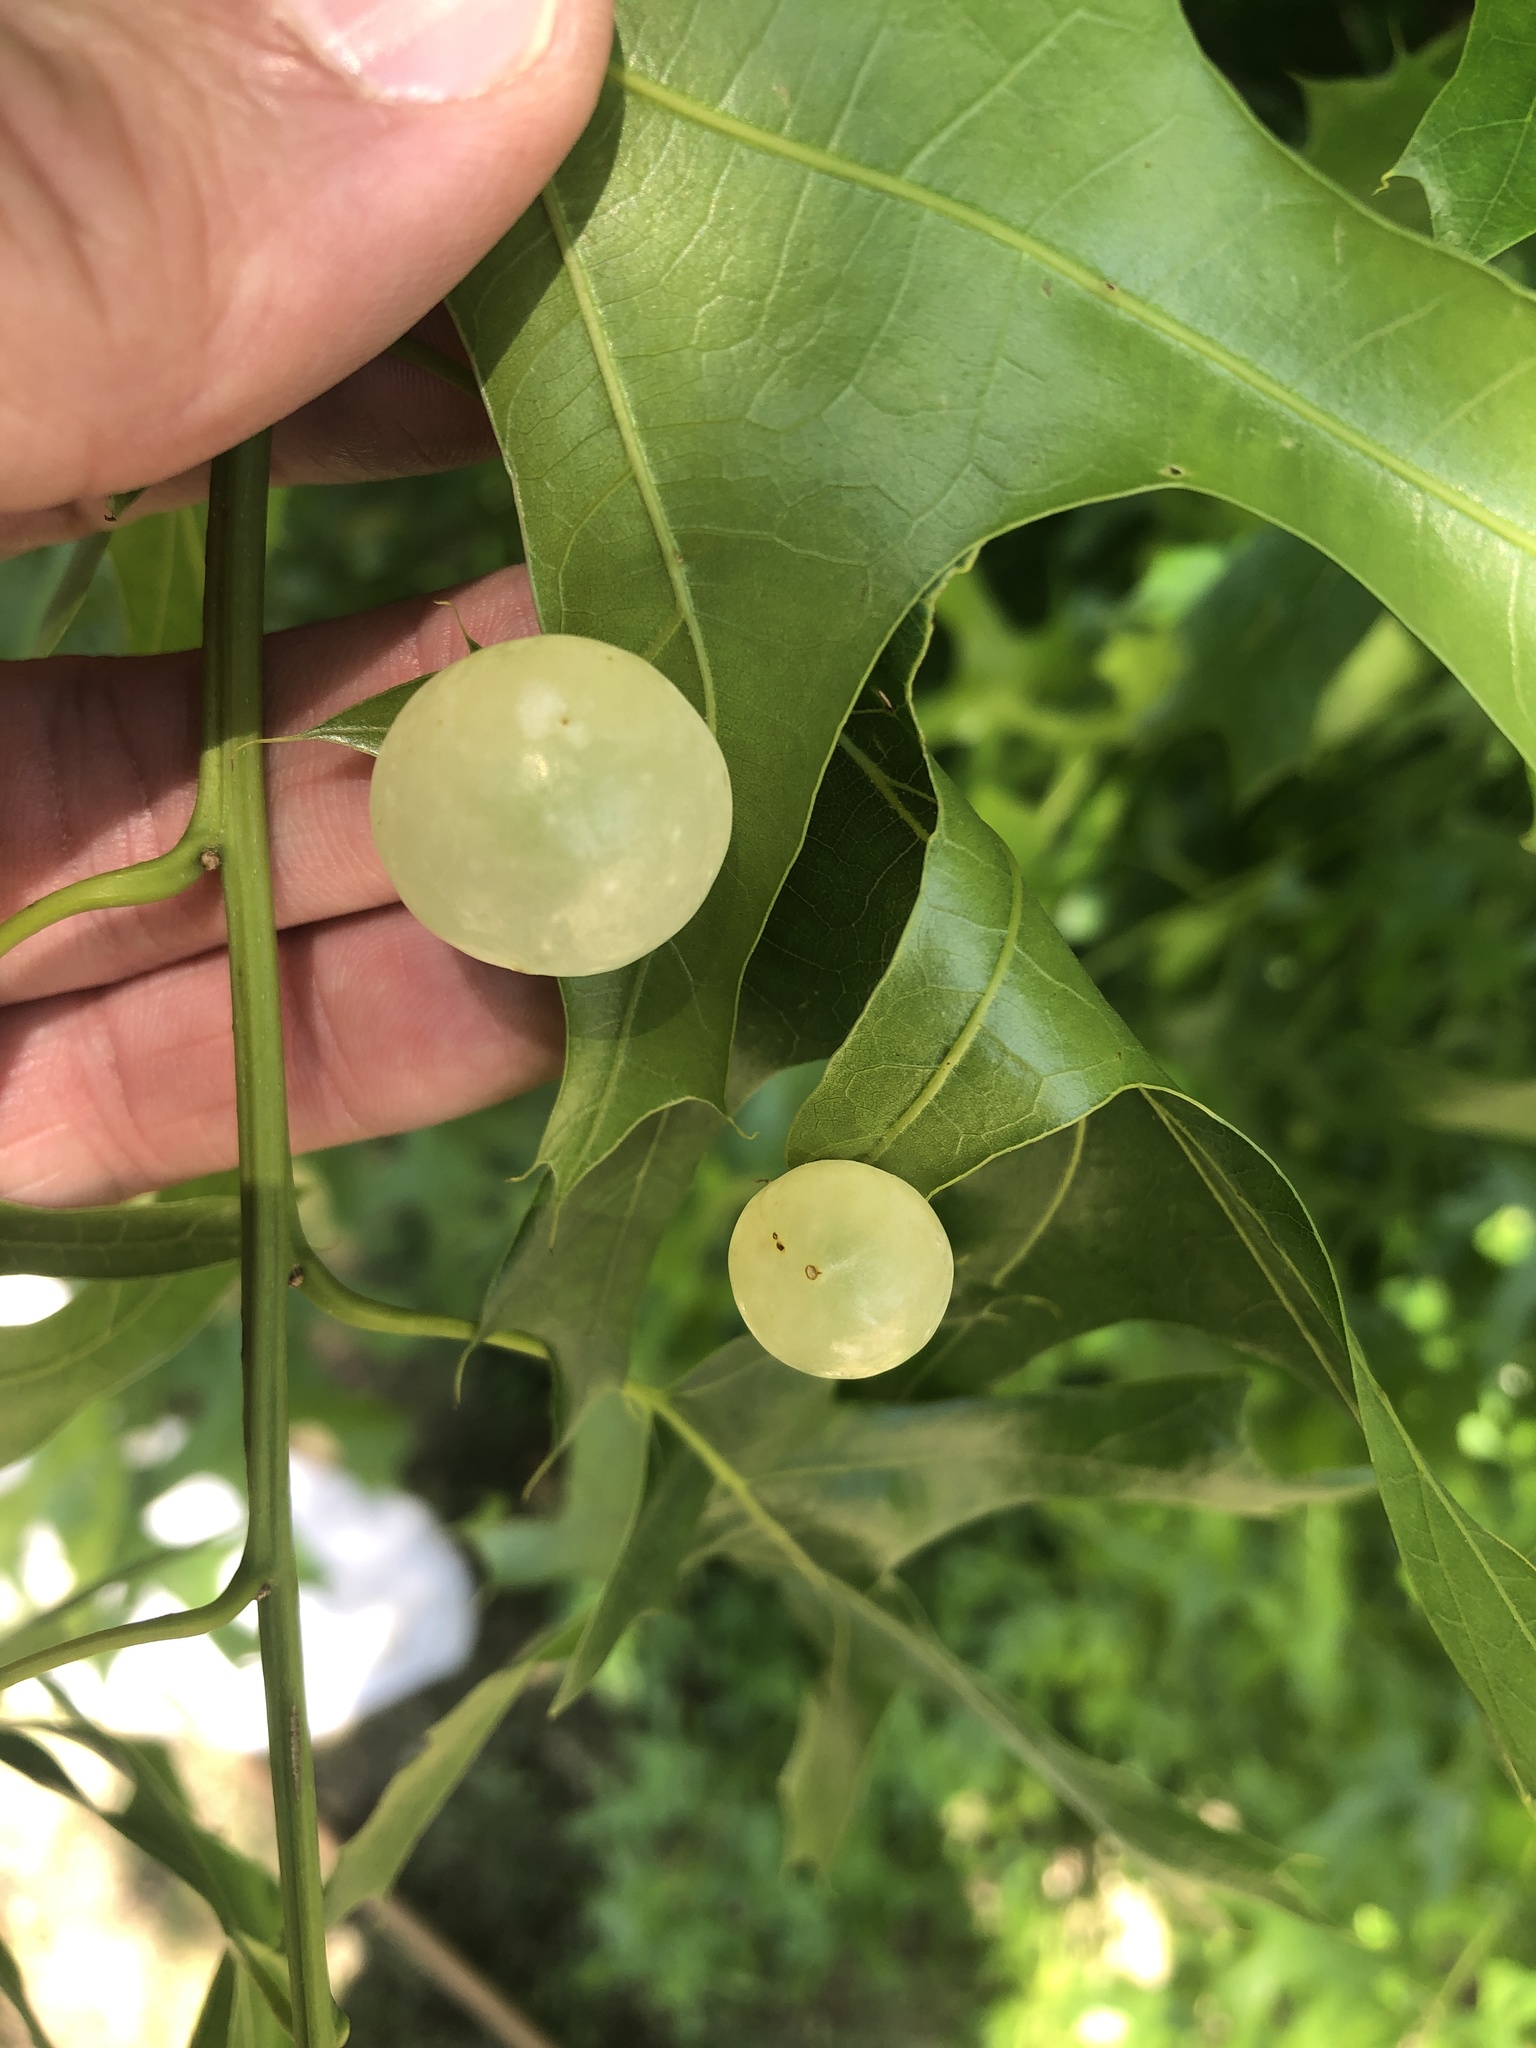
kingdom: Animalia
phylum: Arthropoda
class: Insecta
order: Hymenoptera
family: Cynipidae
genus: Amphibolips
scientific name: Amphibolips
